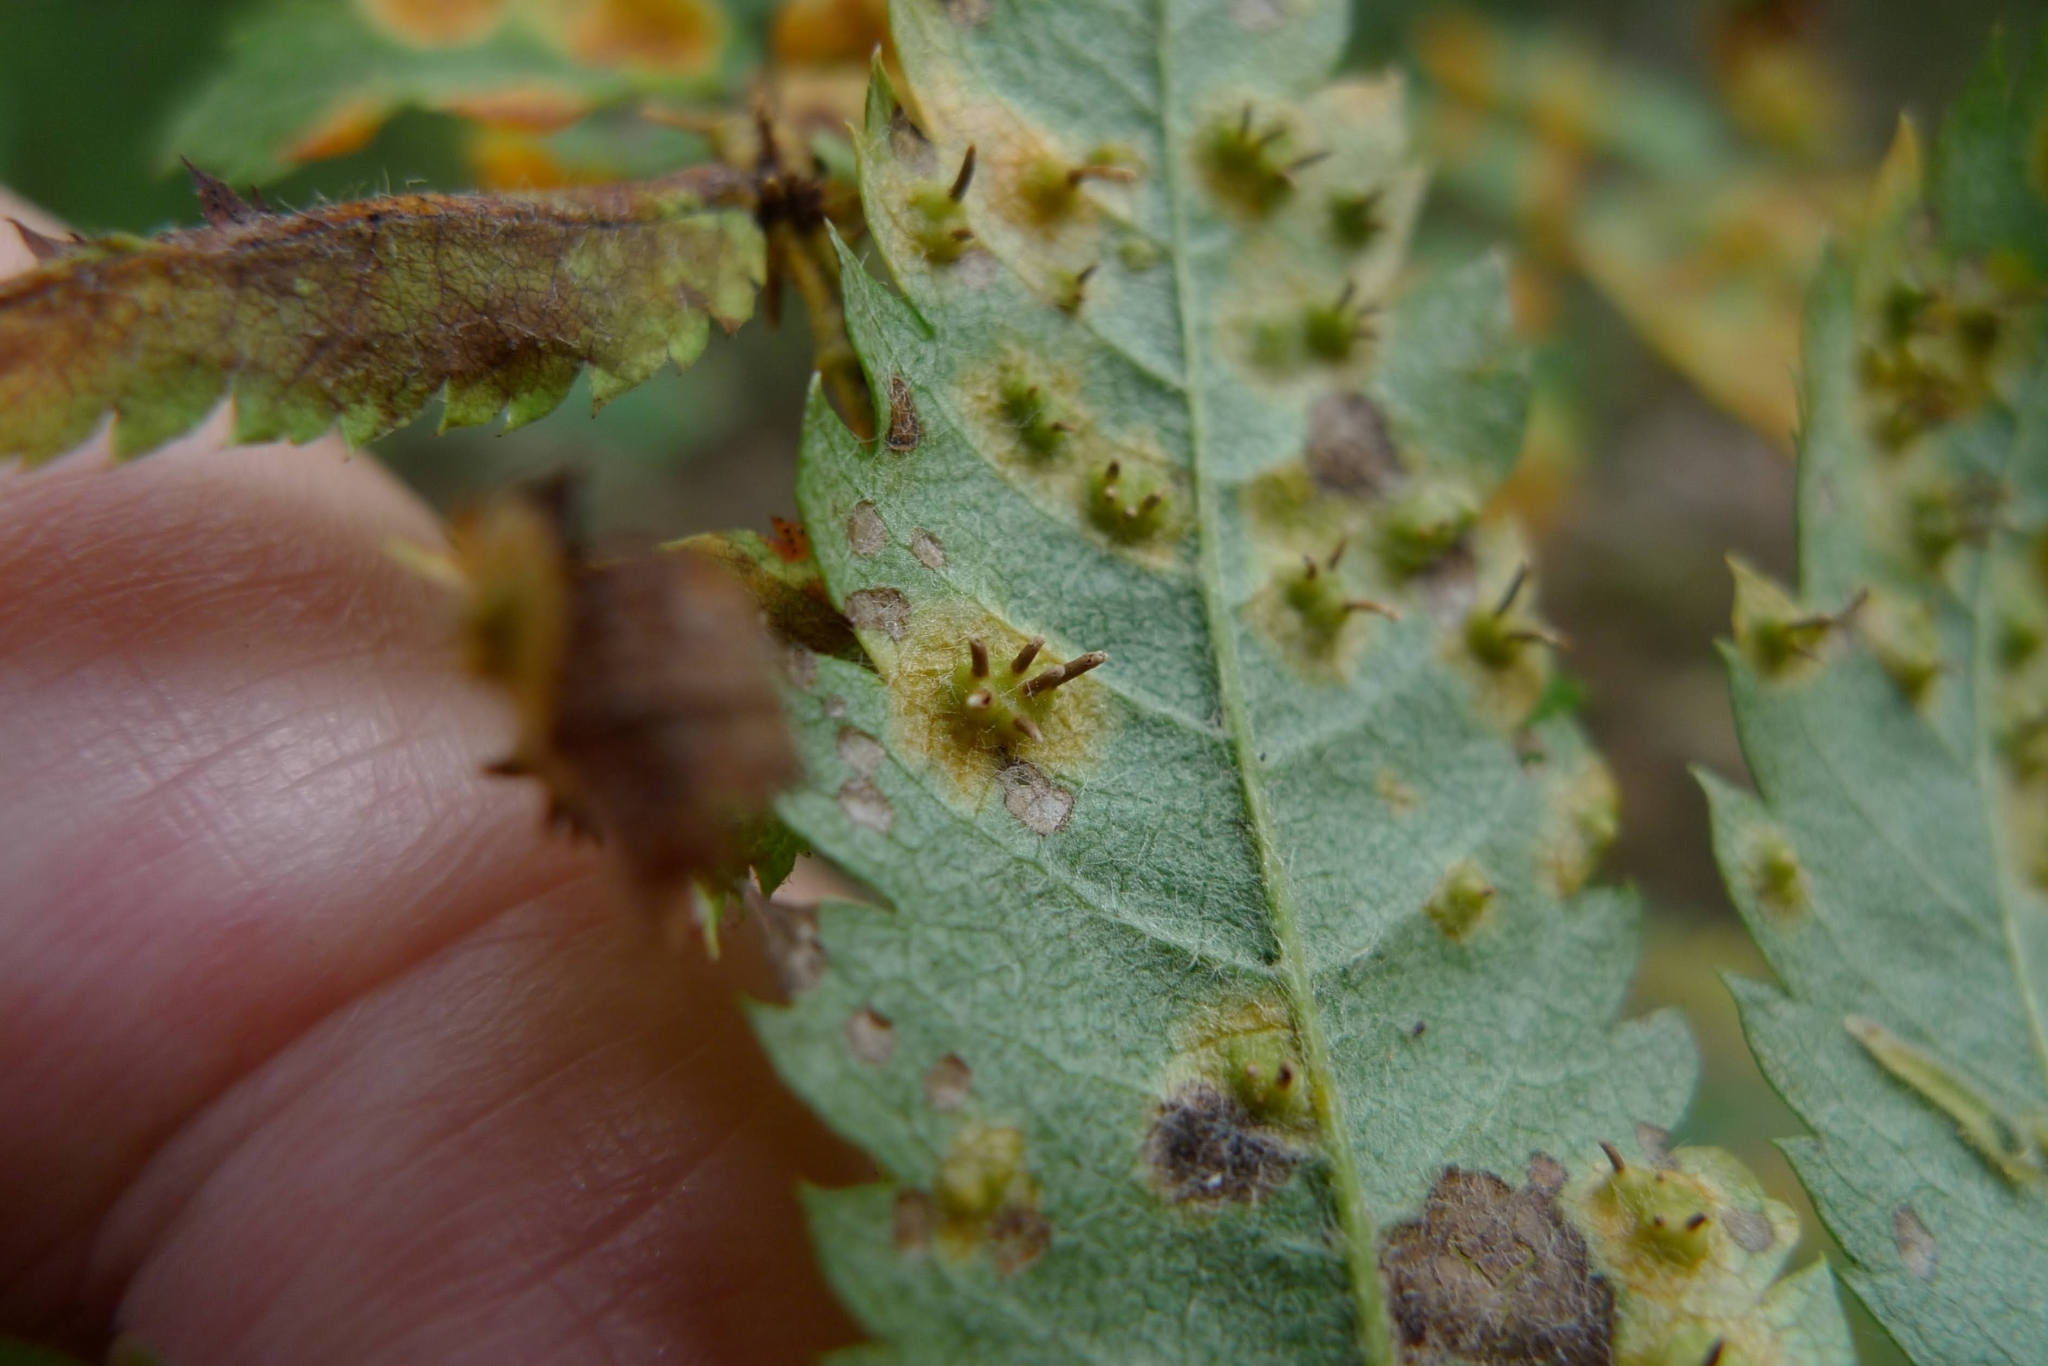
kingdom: Fungi
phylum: Basidiomycota
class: Pucciniomycetes
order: Pucciniales
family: Gymnosporangiaceae
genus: Gymnosporangium
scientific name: Gymnosporangium cornutum
